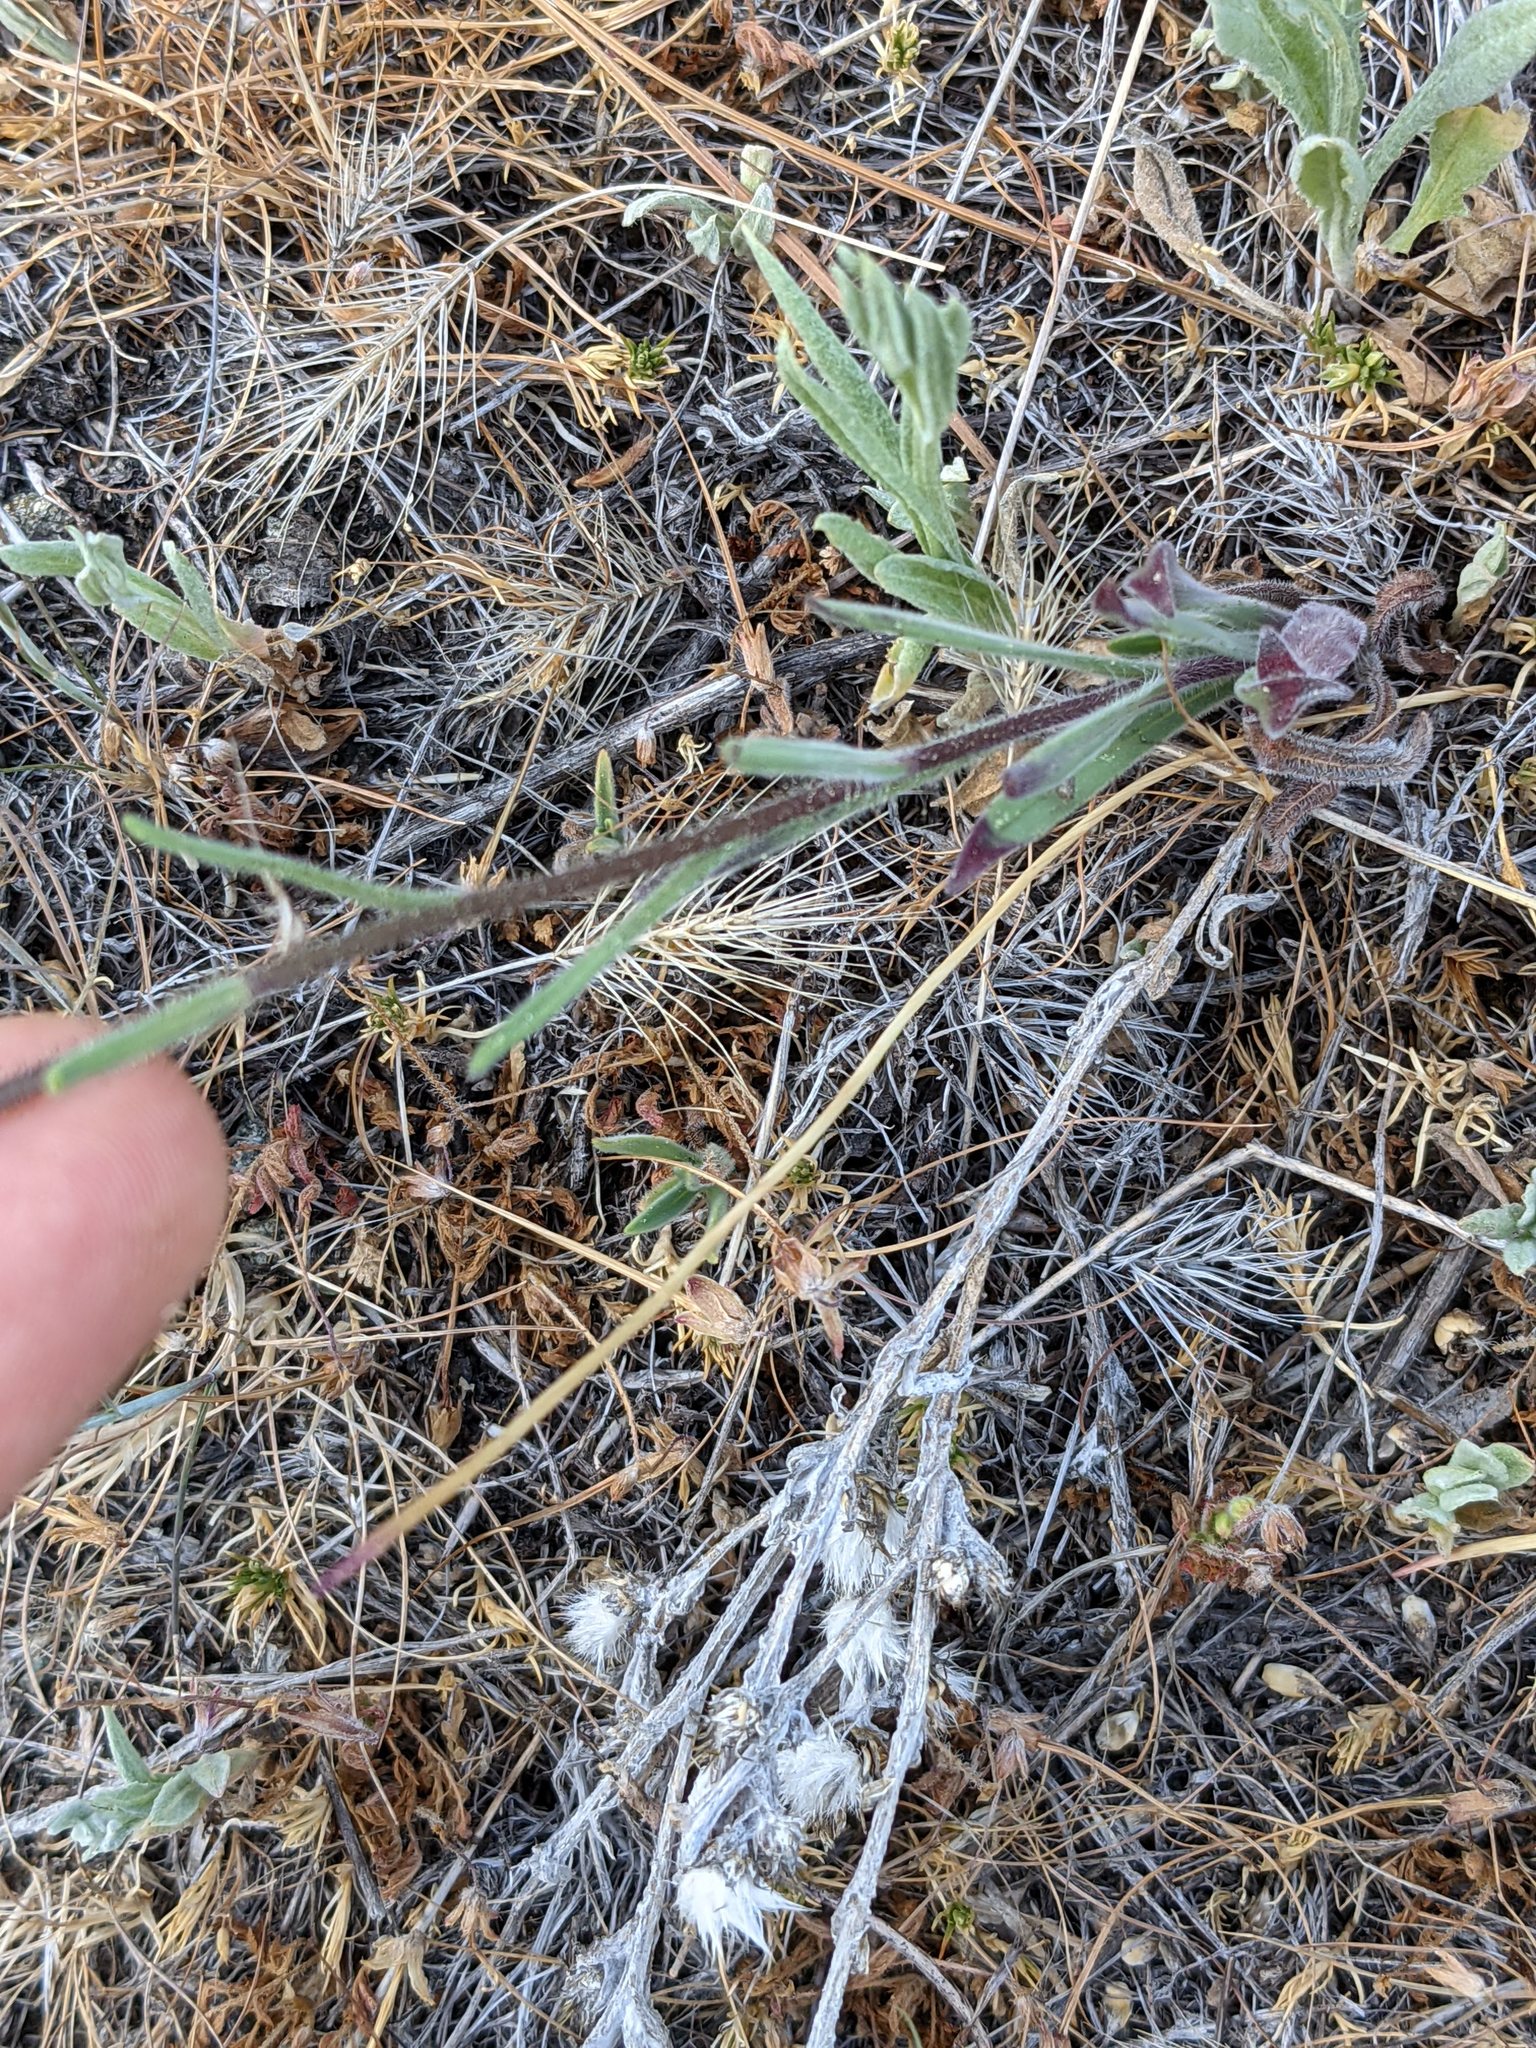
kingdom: Plantae
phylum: Tracheophyta
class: Magnoliopsida
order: Asterales
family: Asteraceae
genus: Madia
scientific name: Madia elegans
